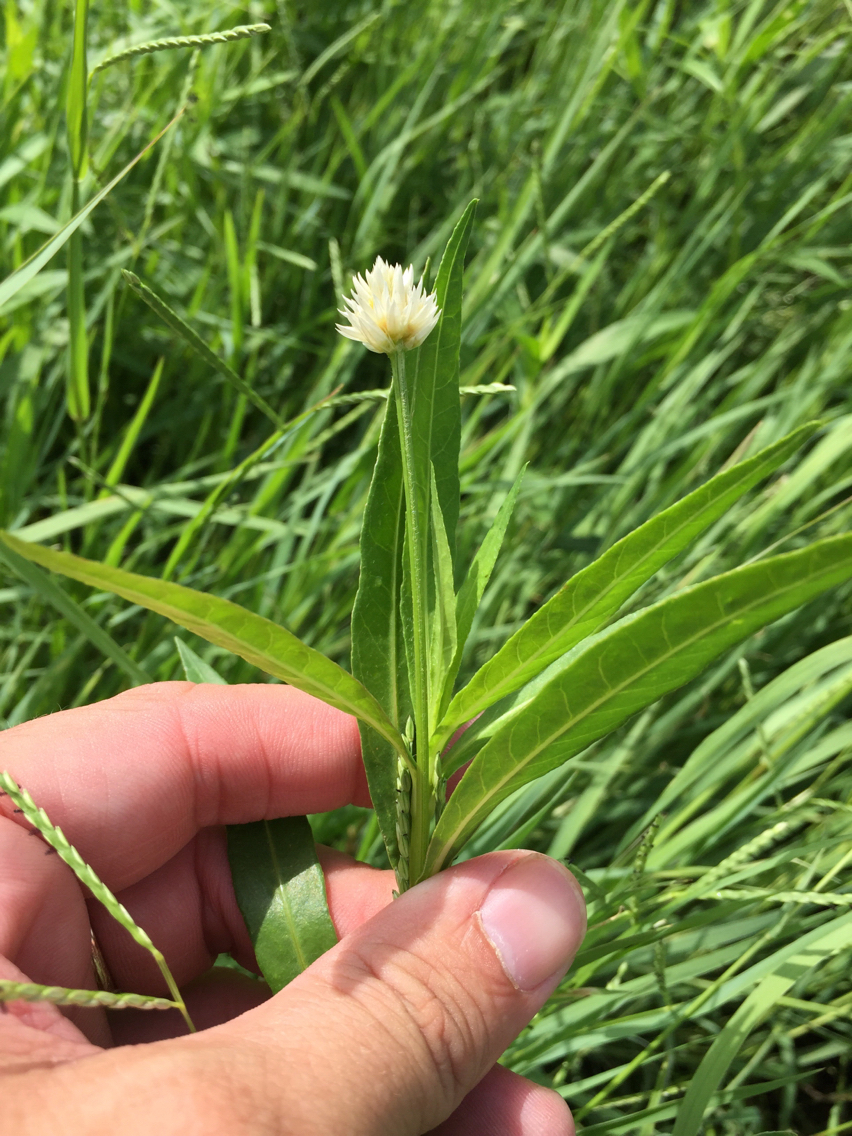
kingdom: Plantae
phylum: Tracheophyta
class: Magnoliopsida
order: Caryophyllales
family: Amaranthaceae
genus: Alternanthera
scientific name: Alternanthera philoxeroides
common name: Alligatorweed
